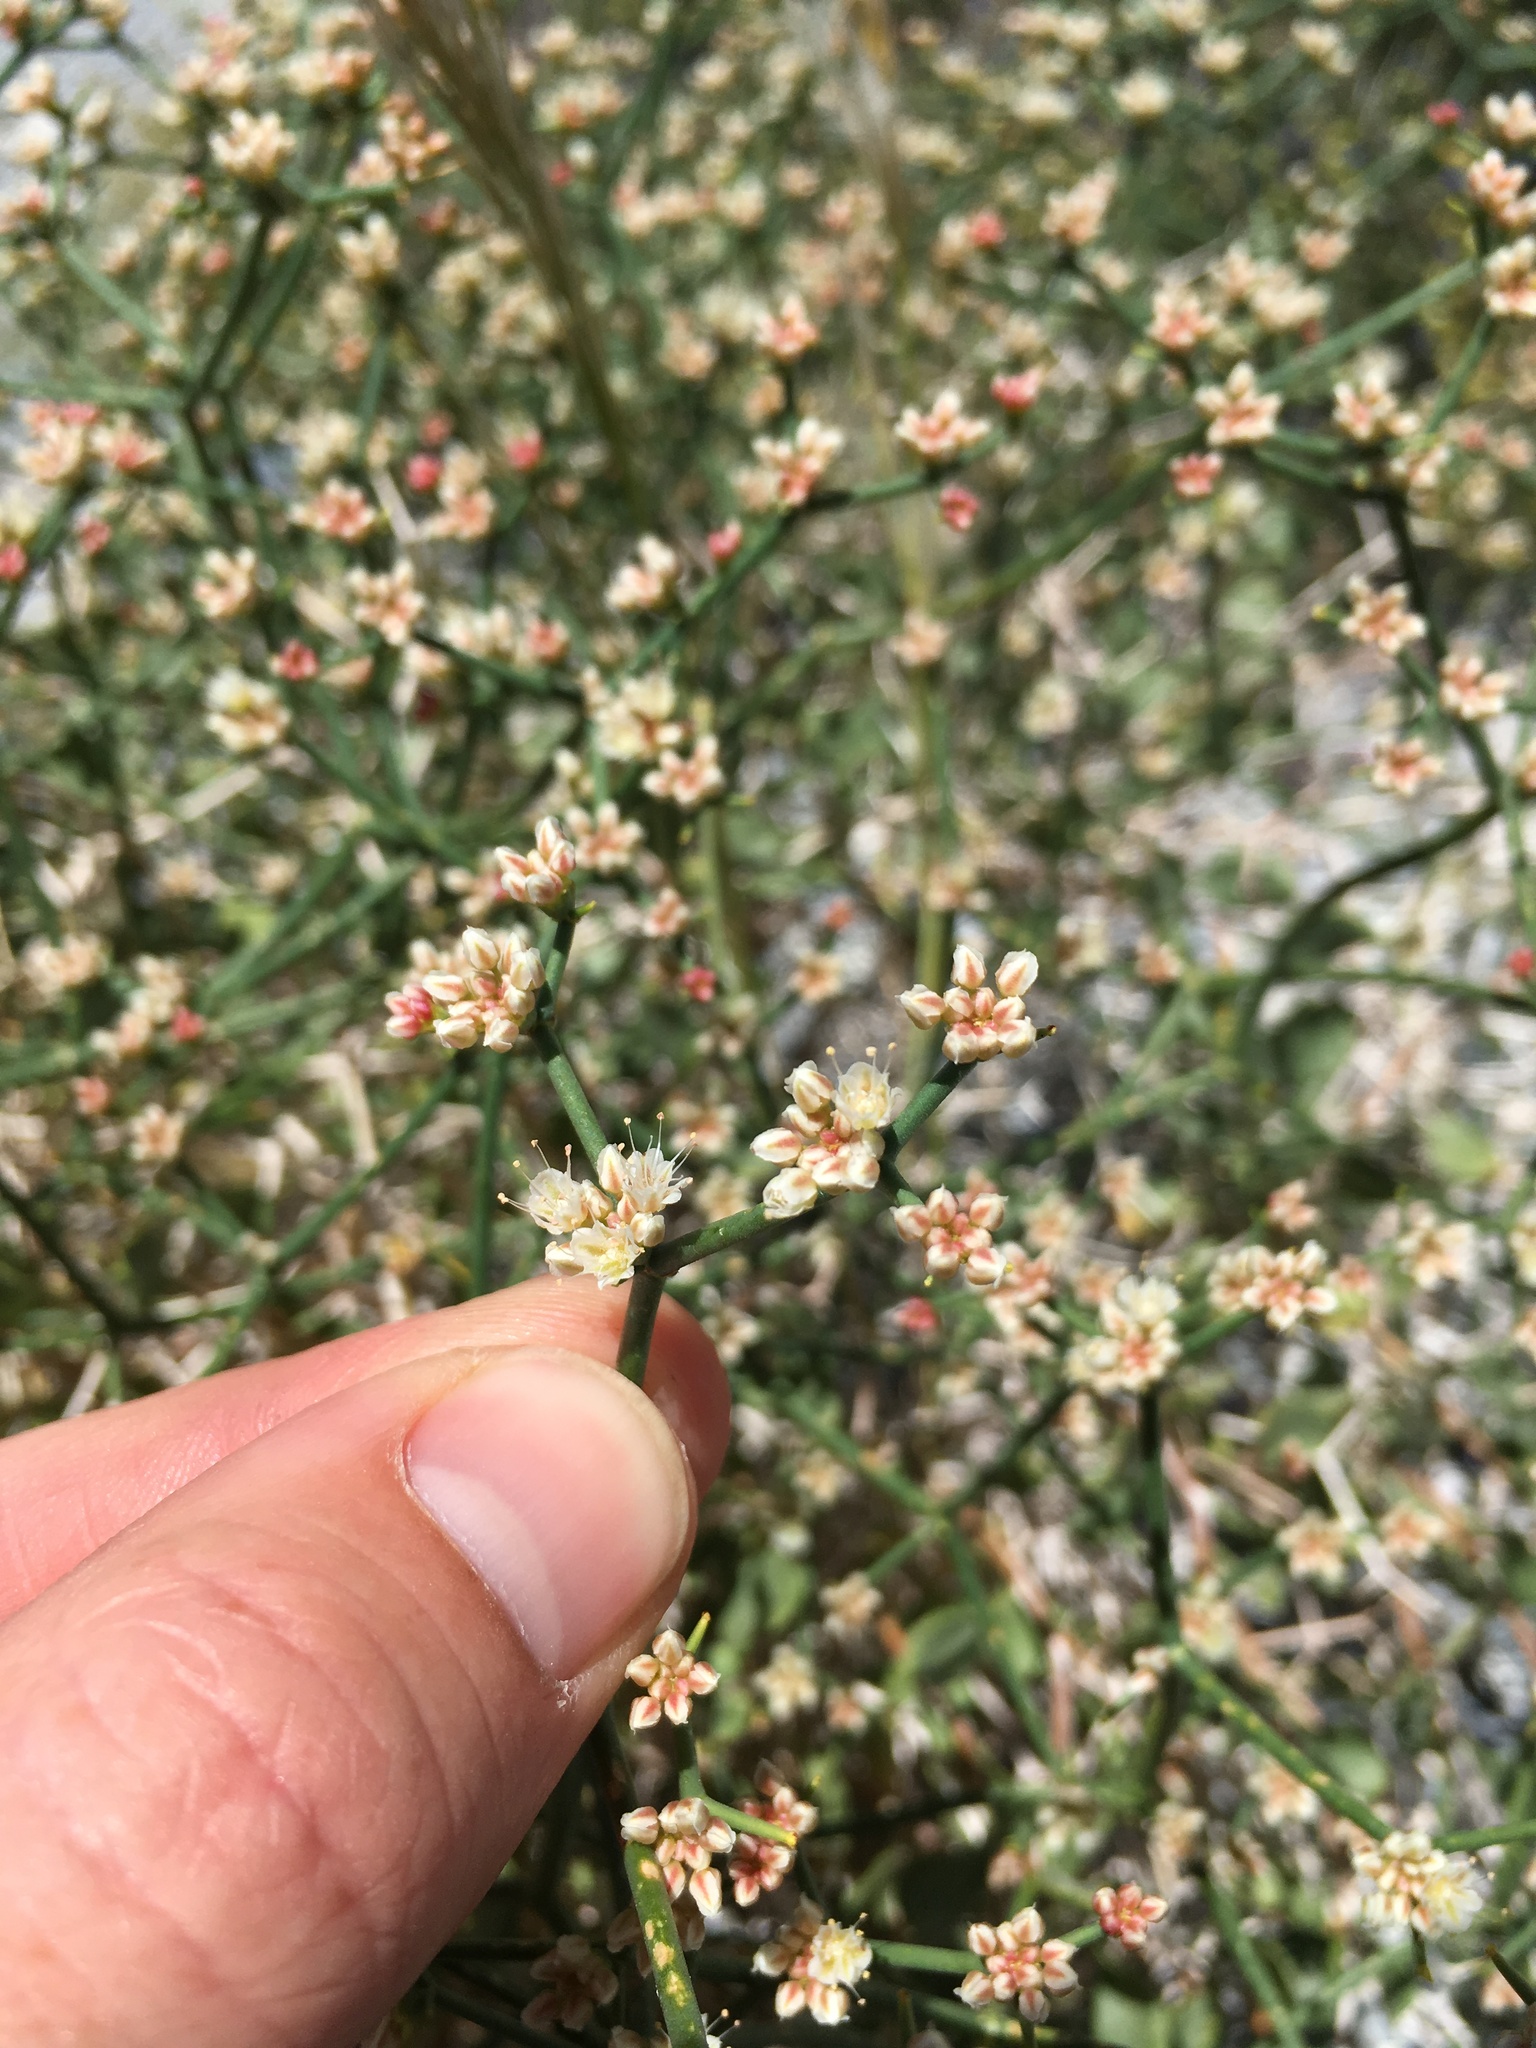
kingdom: Plantae
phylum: Tracheophyta
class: Magnoliopsida
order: Caryophyllales
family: Polygonaceae
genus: Eriogonum
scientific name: Eriogonum heermannii
